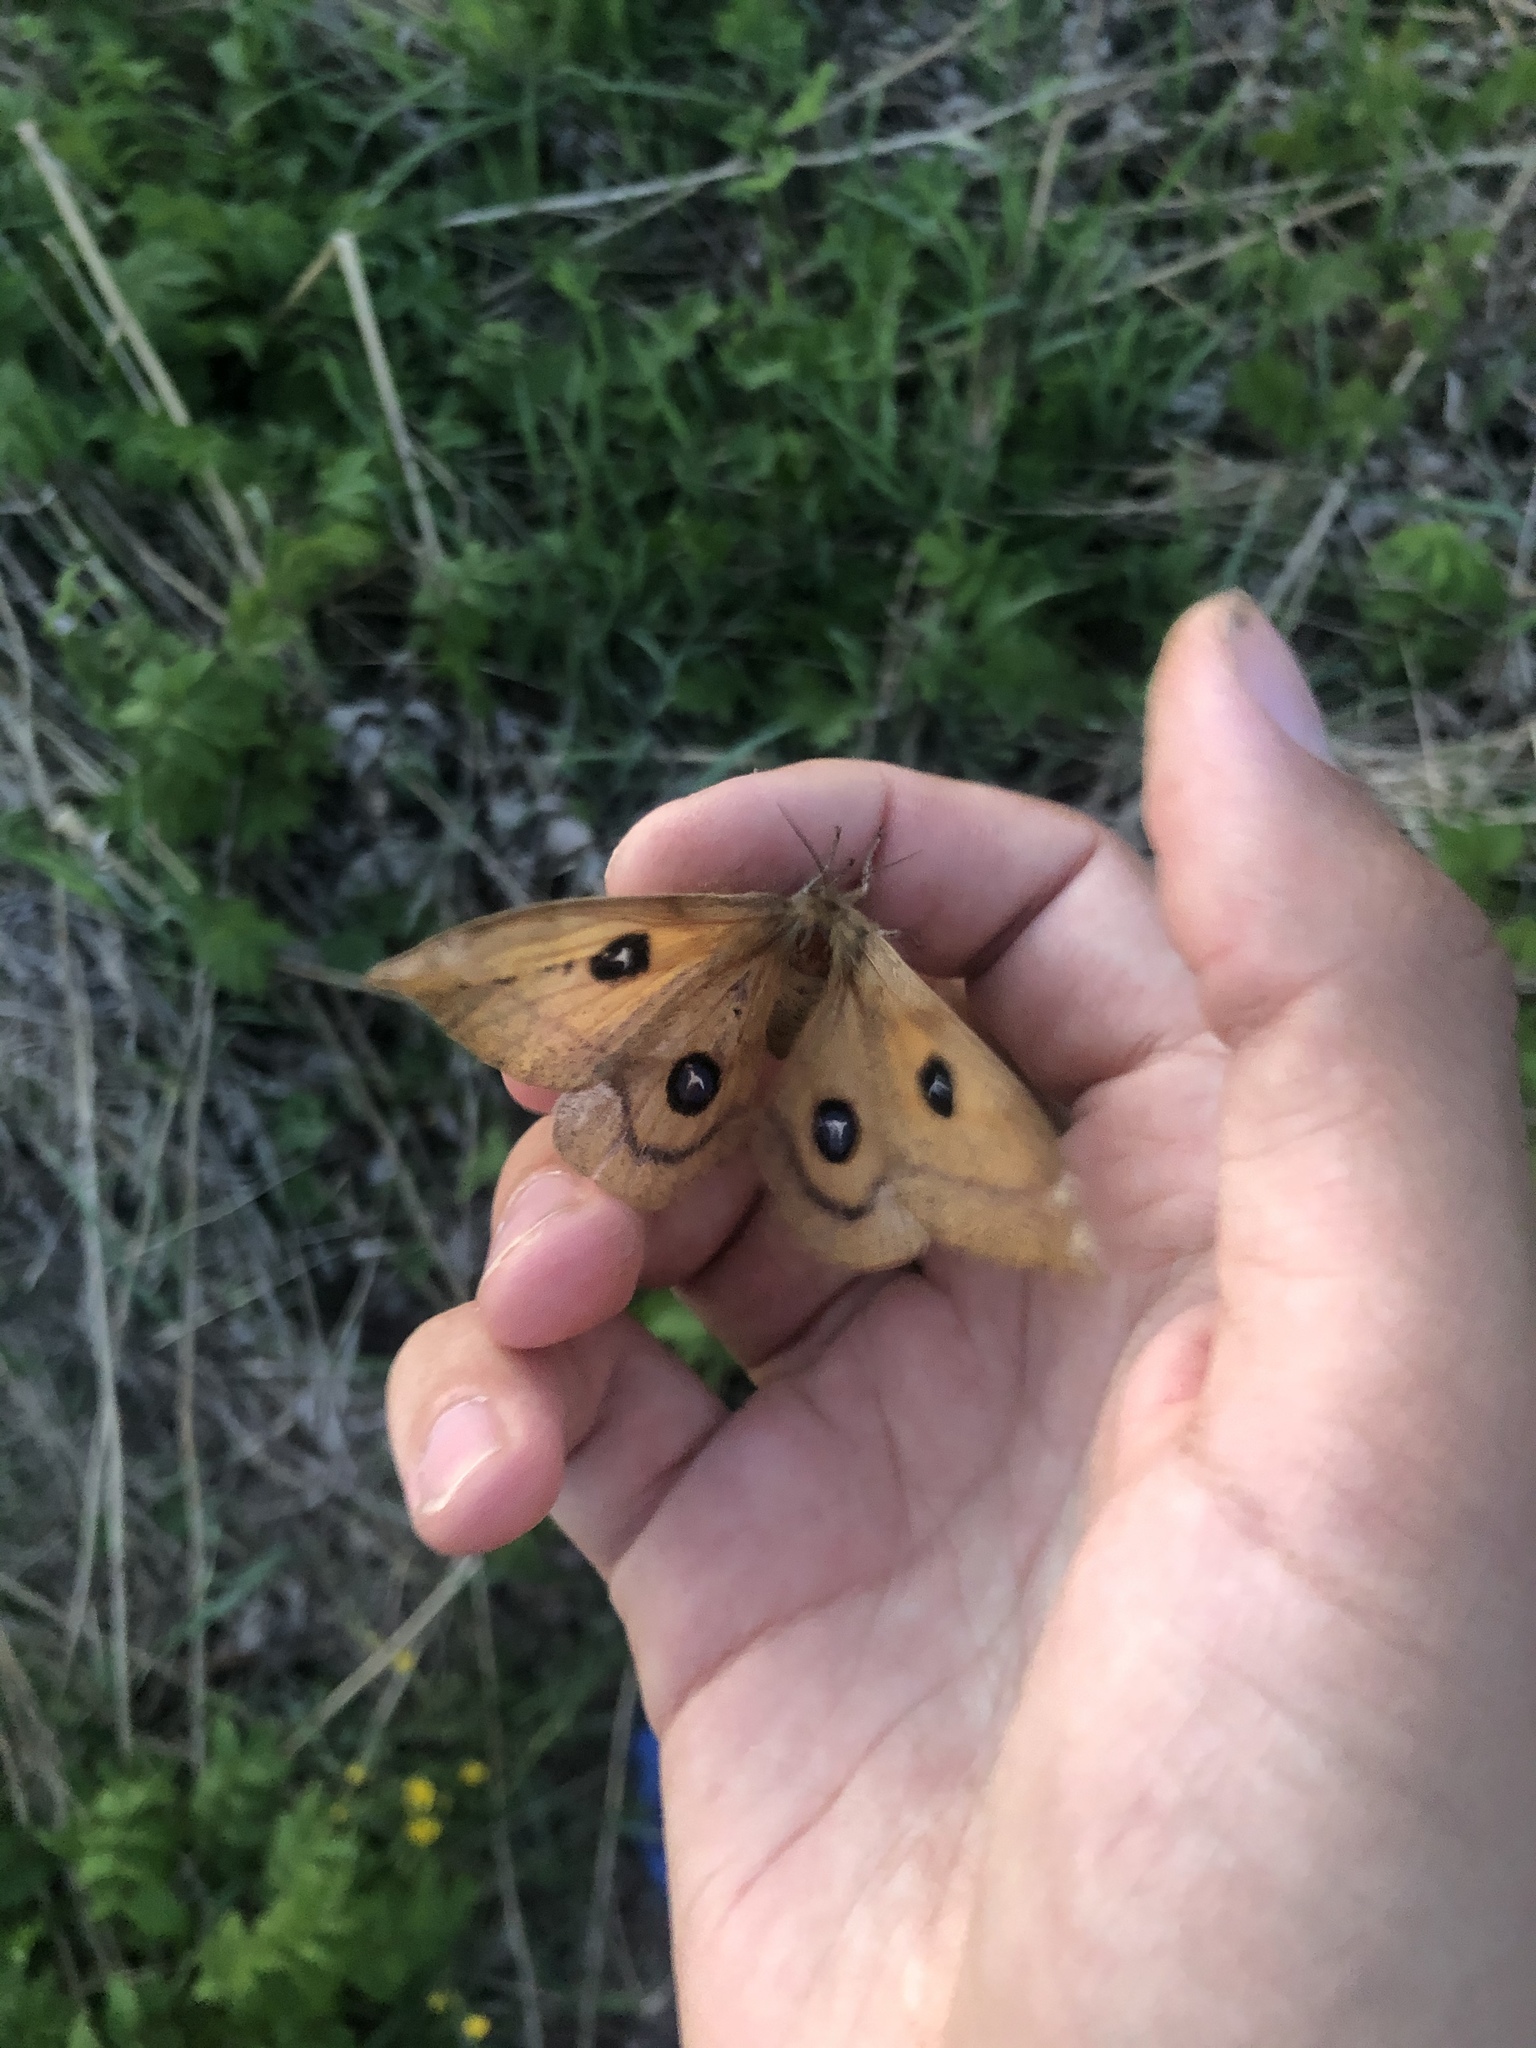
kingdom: Animalia
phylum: Arthropoda
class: Insecta
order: Lepidoptera
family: Saturniidae
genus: Aglia
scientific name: Aglia tau
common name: Tau emperor
